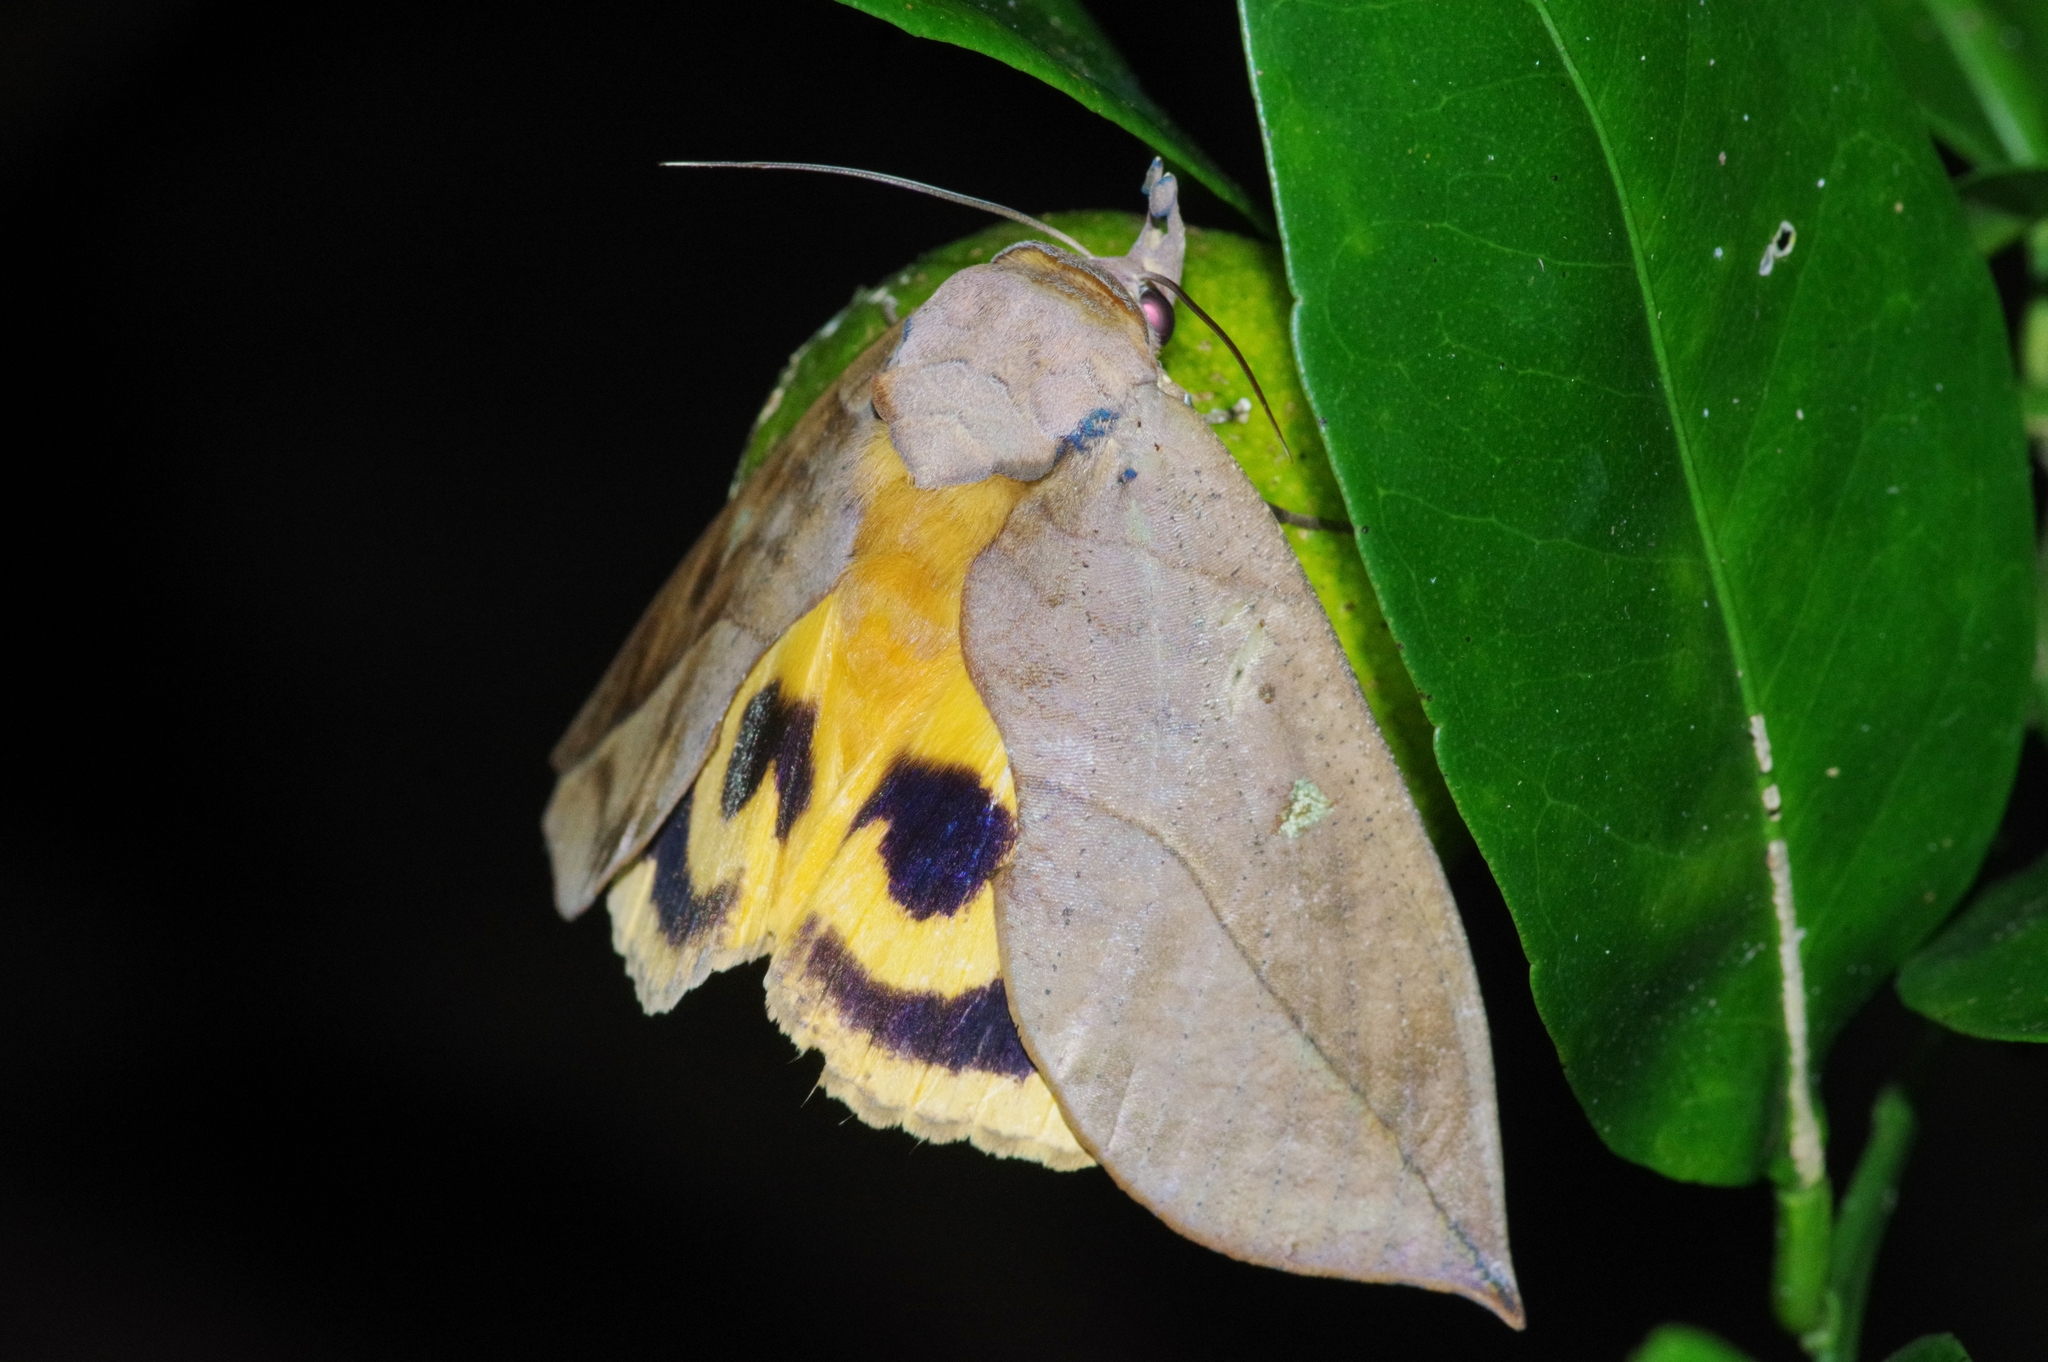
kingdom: Animalia
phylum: Arthropoda
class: Insecta
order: Lepidoptera
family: Erebidae
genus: Eudocima
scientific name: Eudocima tyrannus
